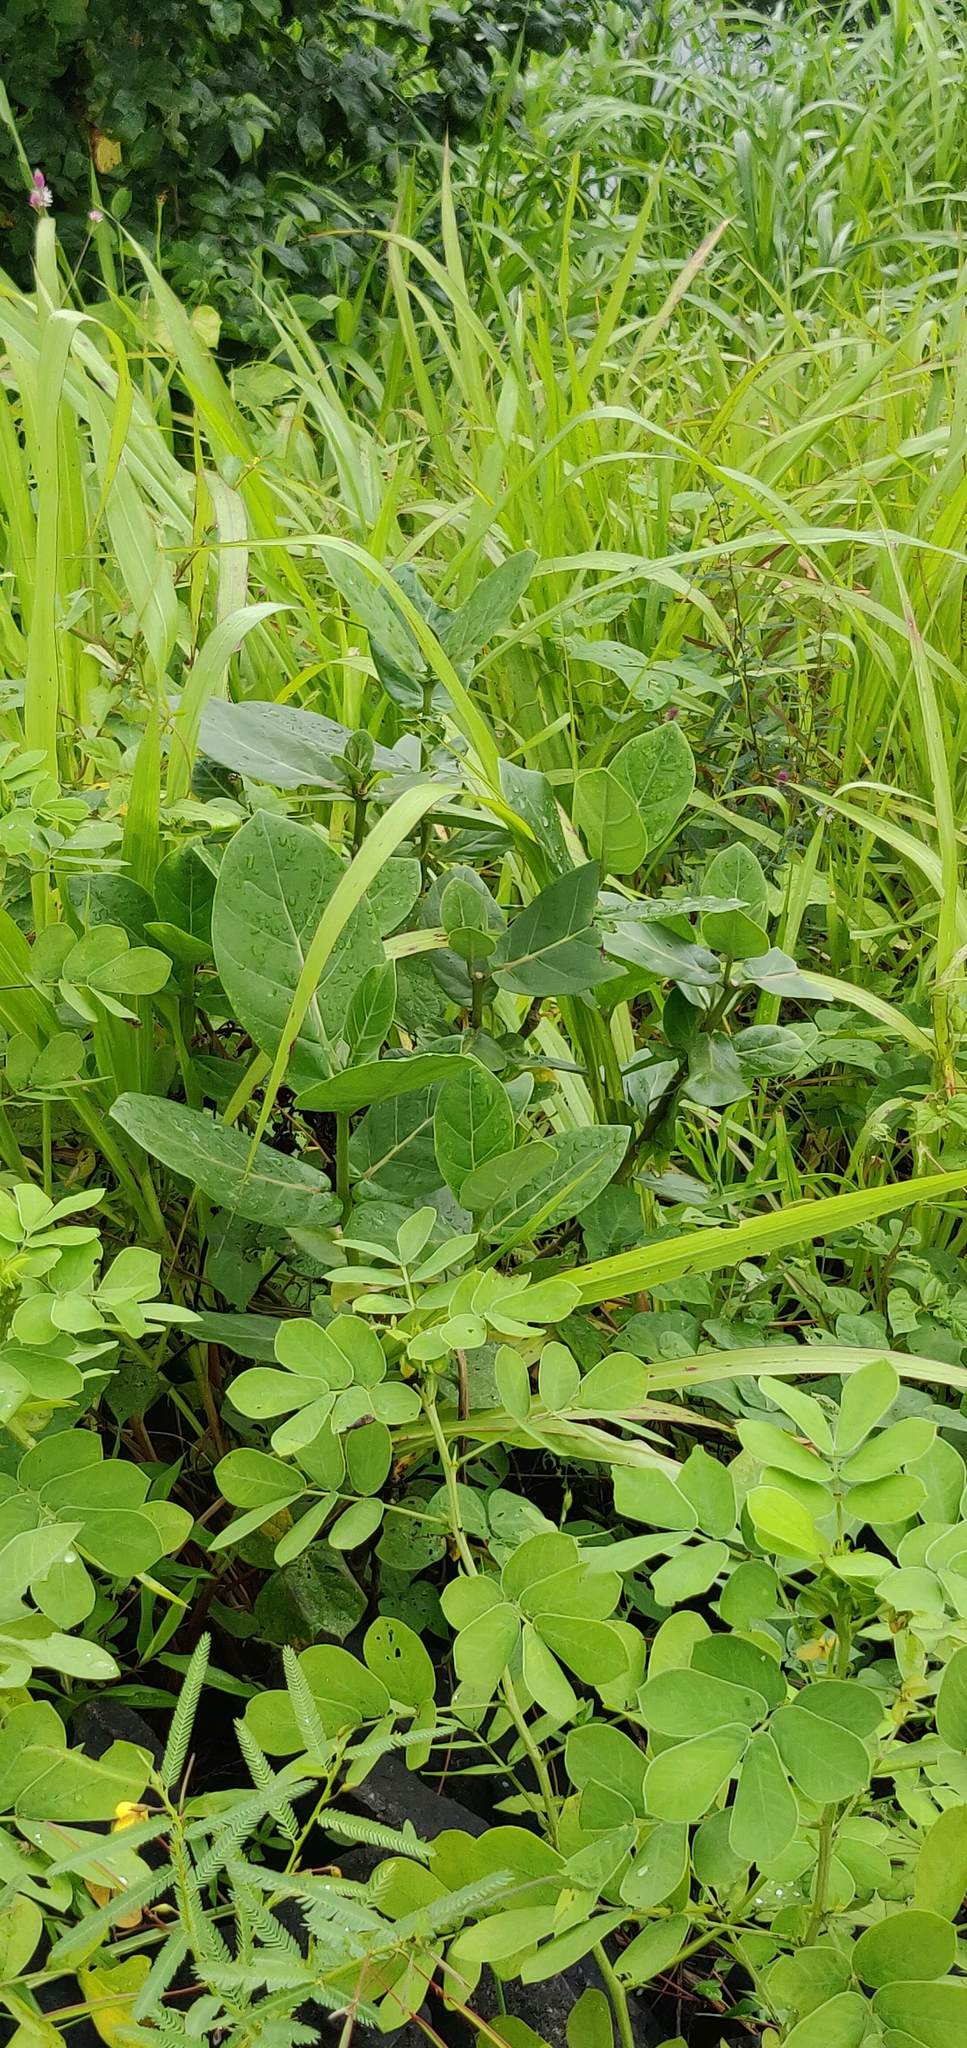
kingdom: Plantae
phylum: Tracheophyta
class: Magnoliopsida
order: Gentianales
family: Apocynaceae
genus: Calotropis
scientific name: Calotropis gigantea
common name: Crown flower
